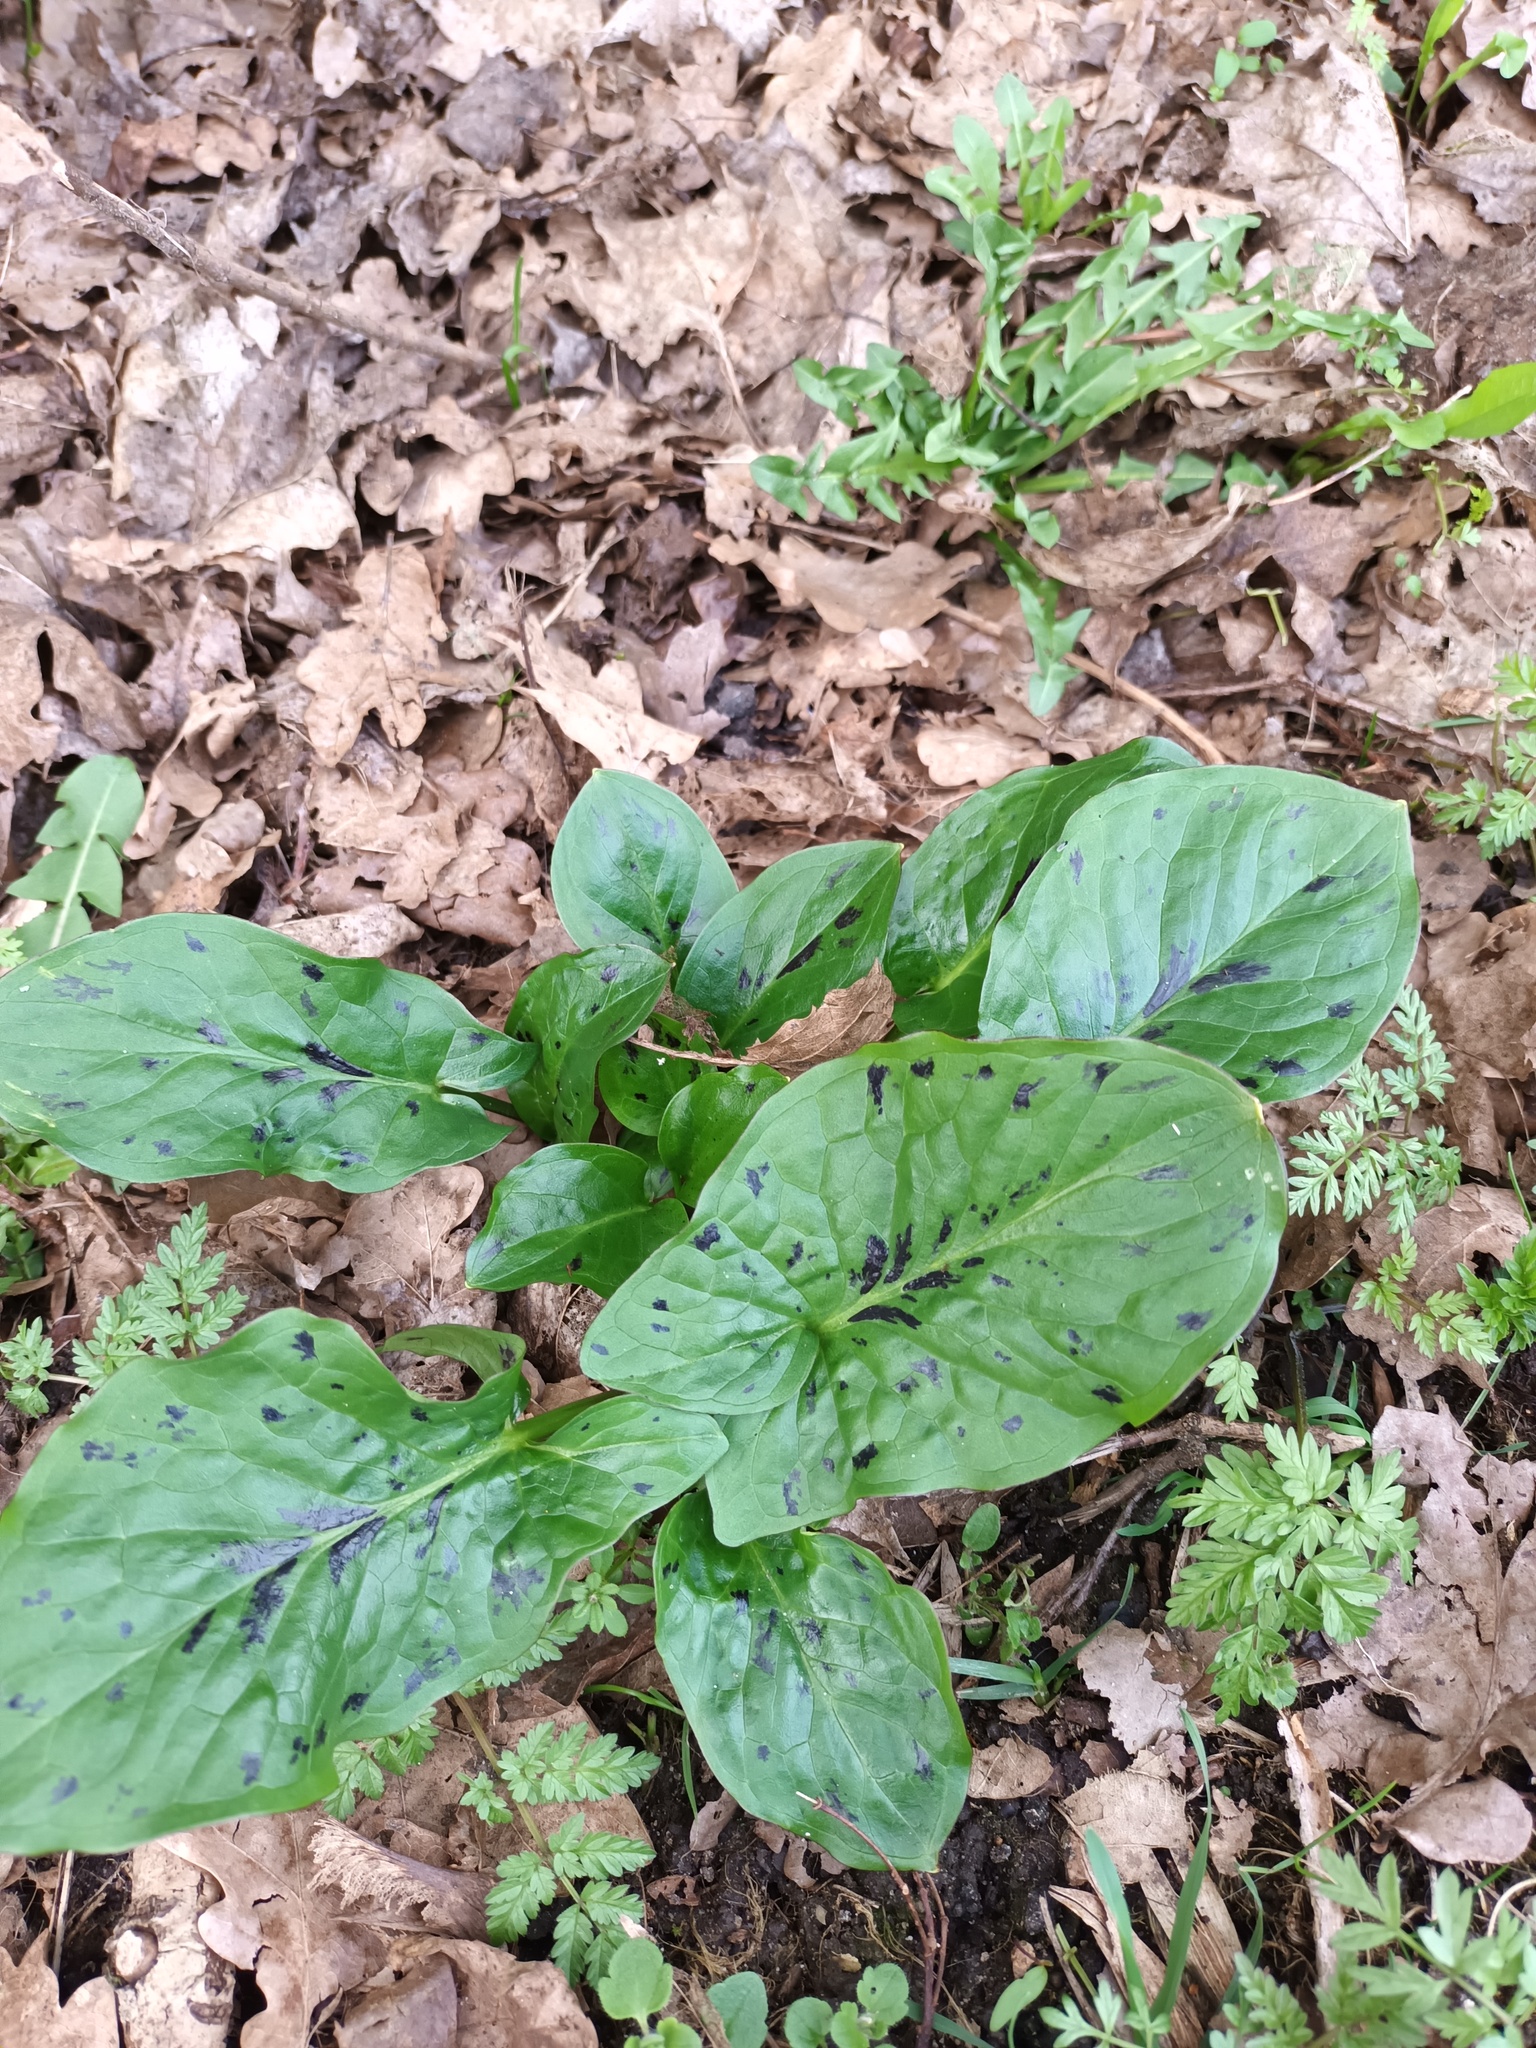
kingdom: Plantae
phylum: Tracheophyta
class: Liliopsida
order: Alismatales
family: Araceae
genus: Arum
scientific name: Arum maculatum
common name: Lords-and-ladies
